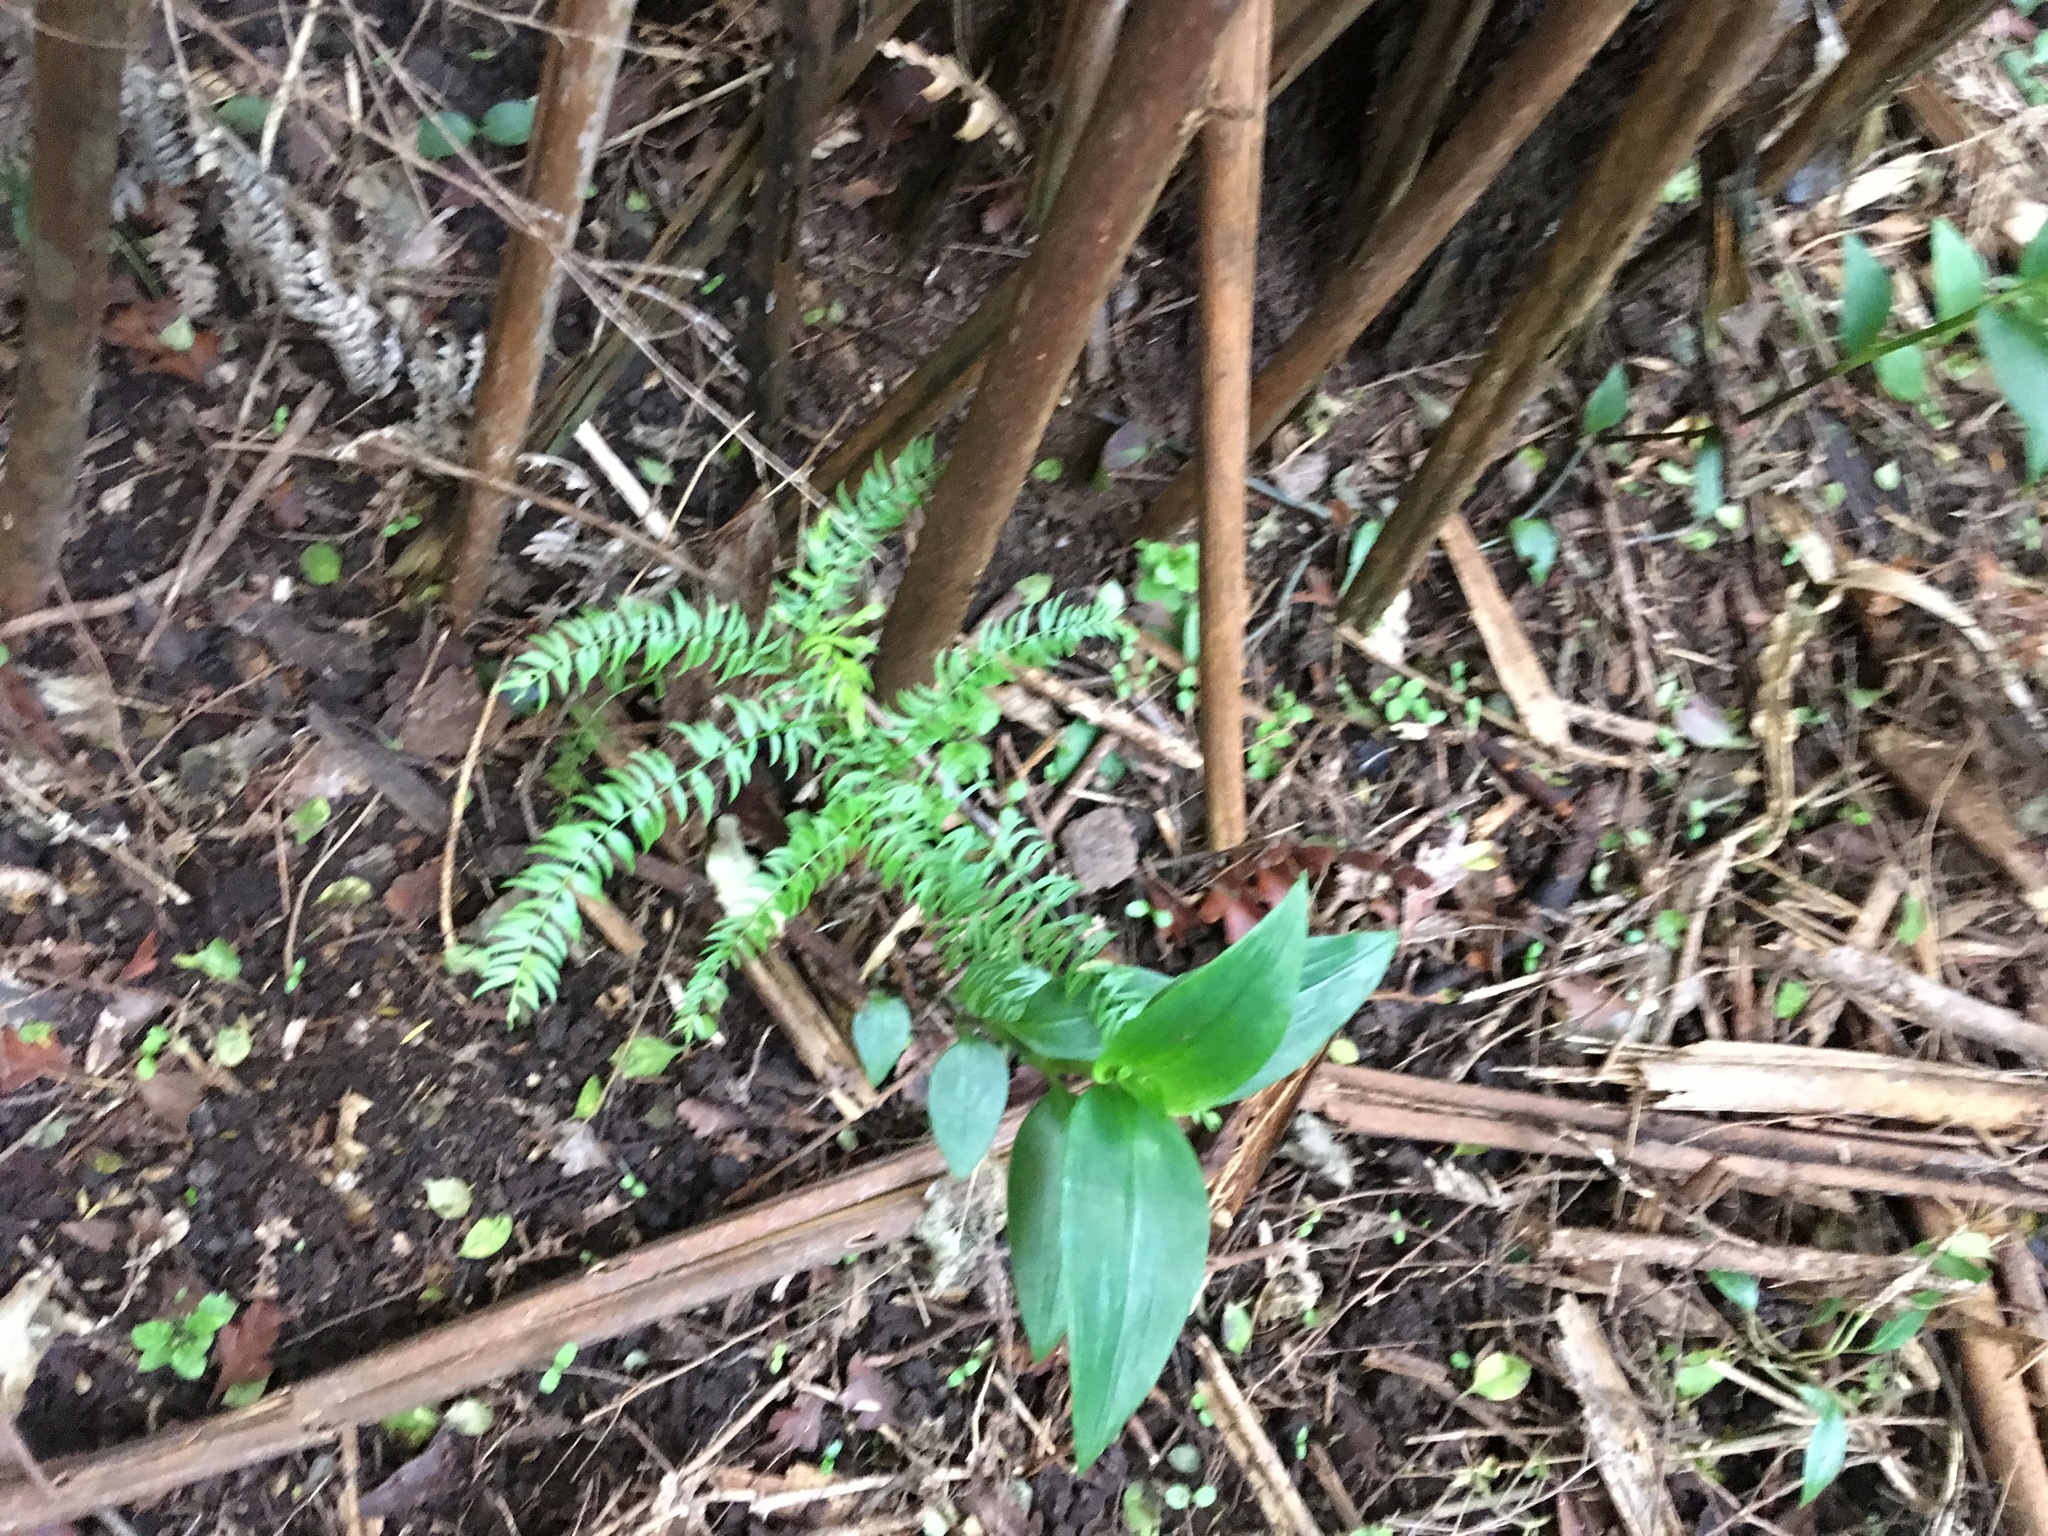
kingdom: Plantae
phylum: Tracheophyta
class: Liliopsida
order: Asparagales
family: Asparagaceae
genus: Asparagus
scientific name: Asparagus scandens
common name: Asparagus-fern
